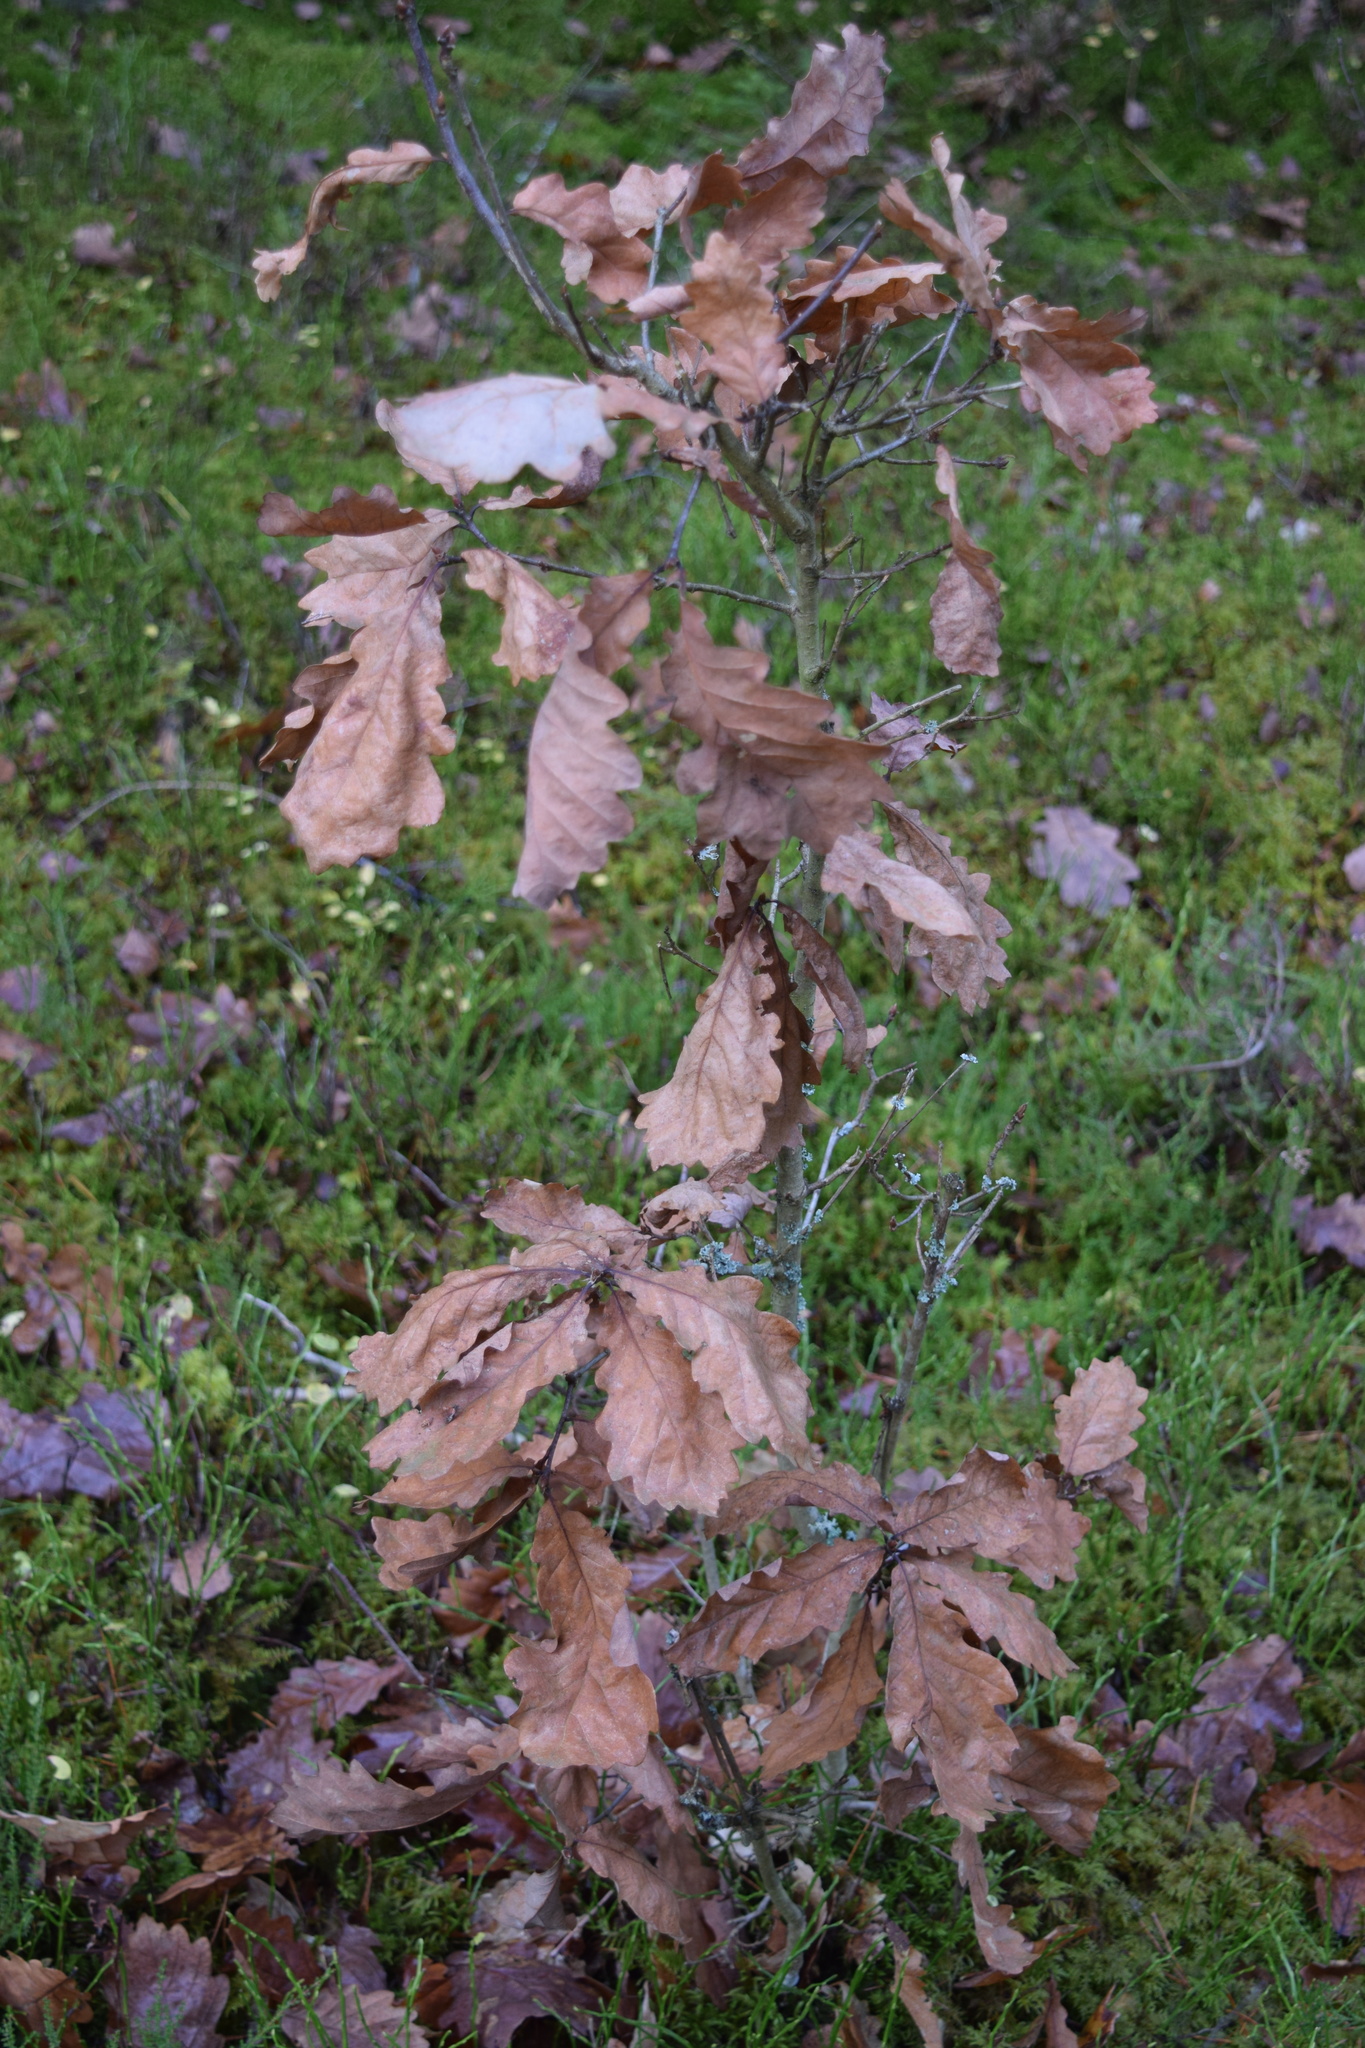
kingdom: Plantae
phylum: Tracheophyta
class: Magnoliopsida
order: Fagales
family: Fagaceae
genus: Quercus
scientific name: Quercus robur
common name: Pedunculate oak
